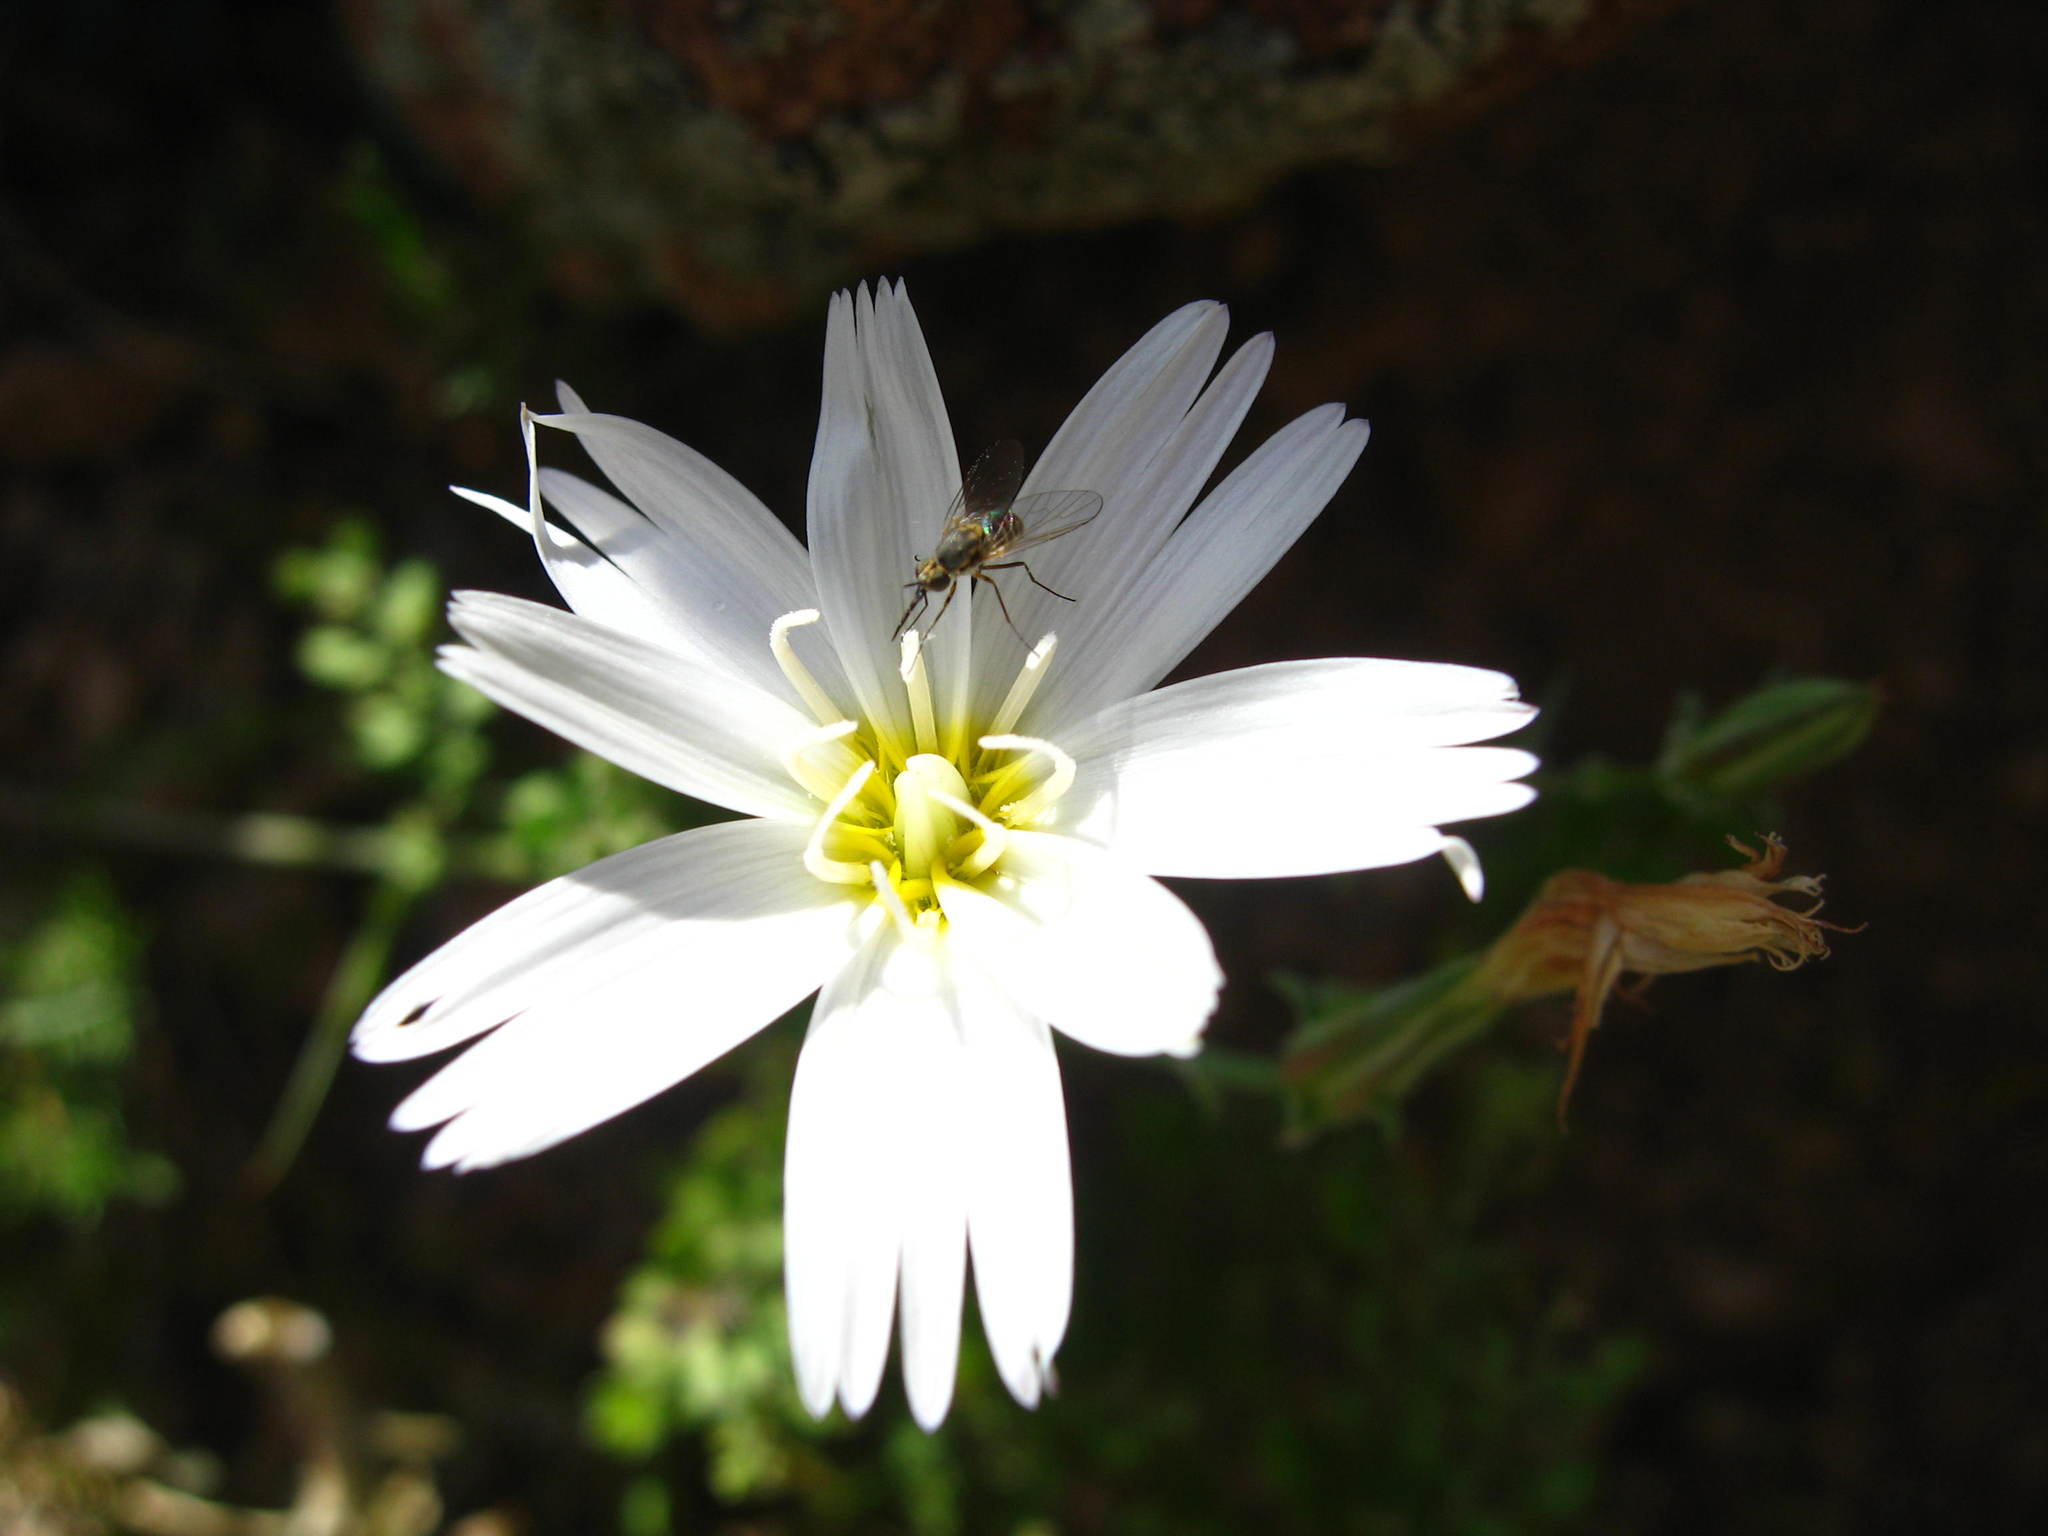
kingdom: Plantae
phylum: Tracheophyta
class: Magnoliopsida
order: Asterales
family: Asteraceae
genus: Rafinesquia
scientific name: Rafinesquia californica
